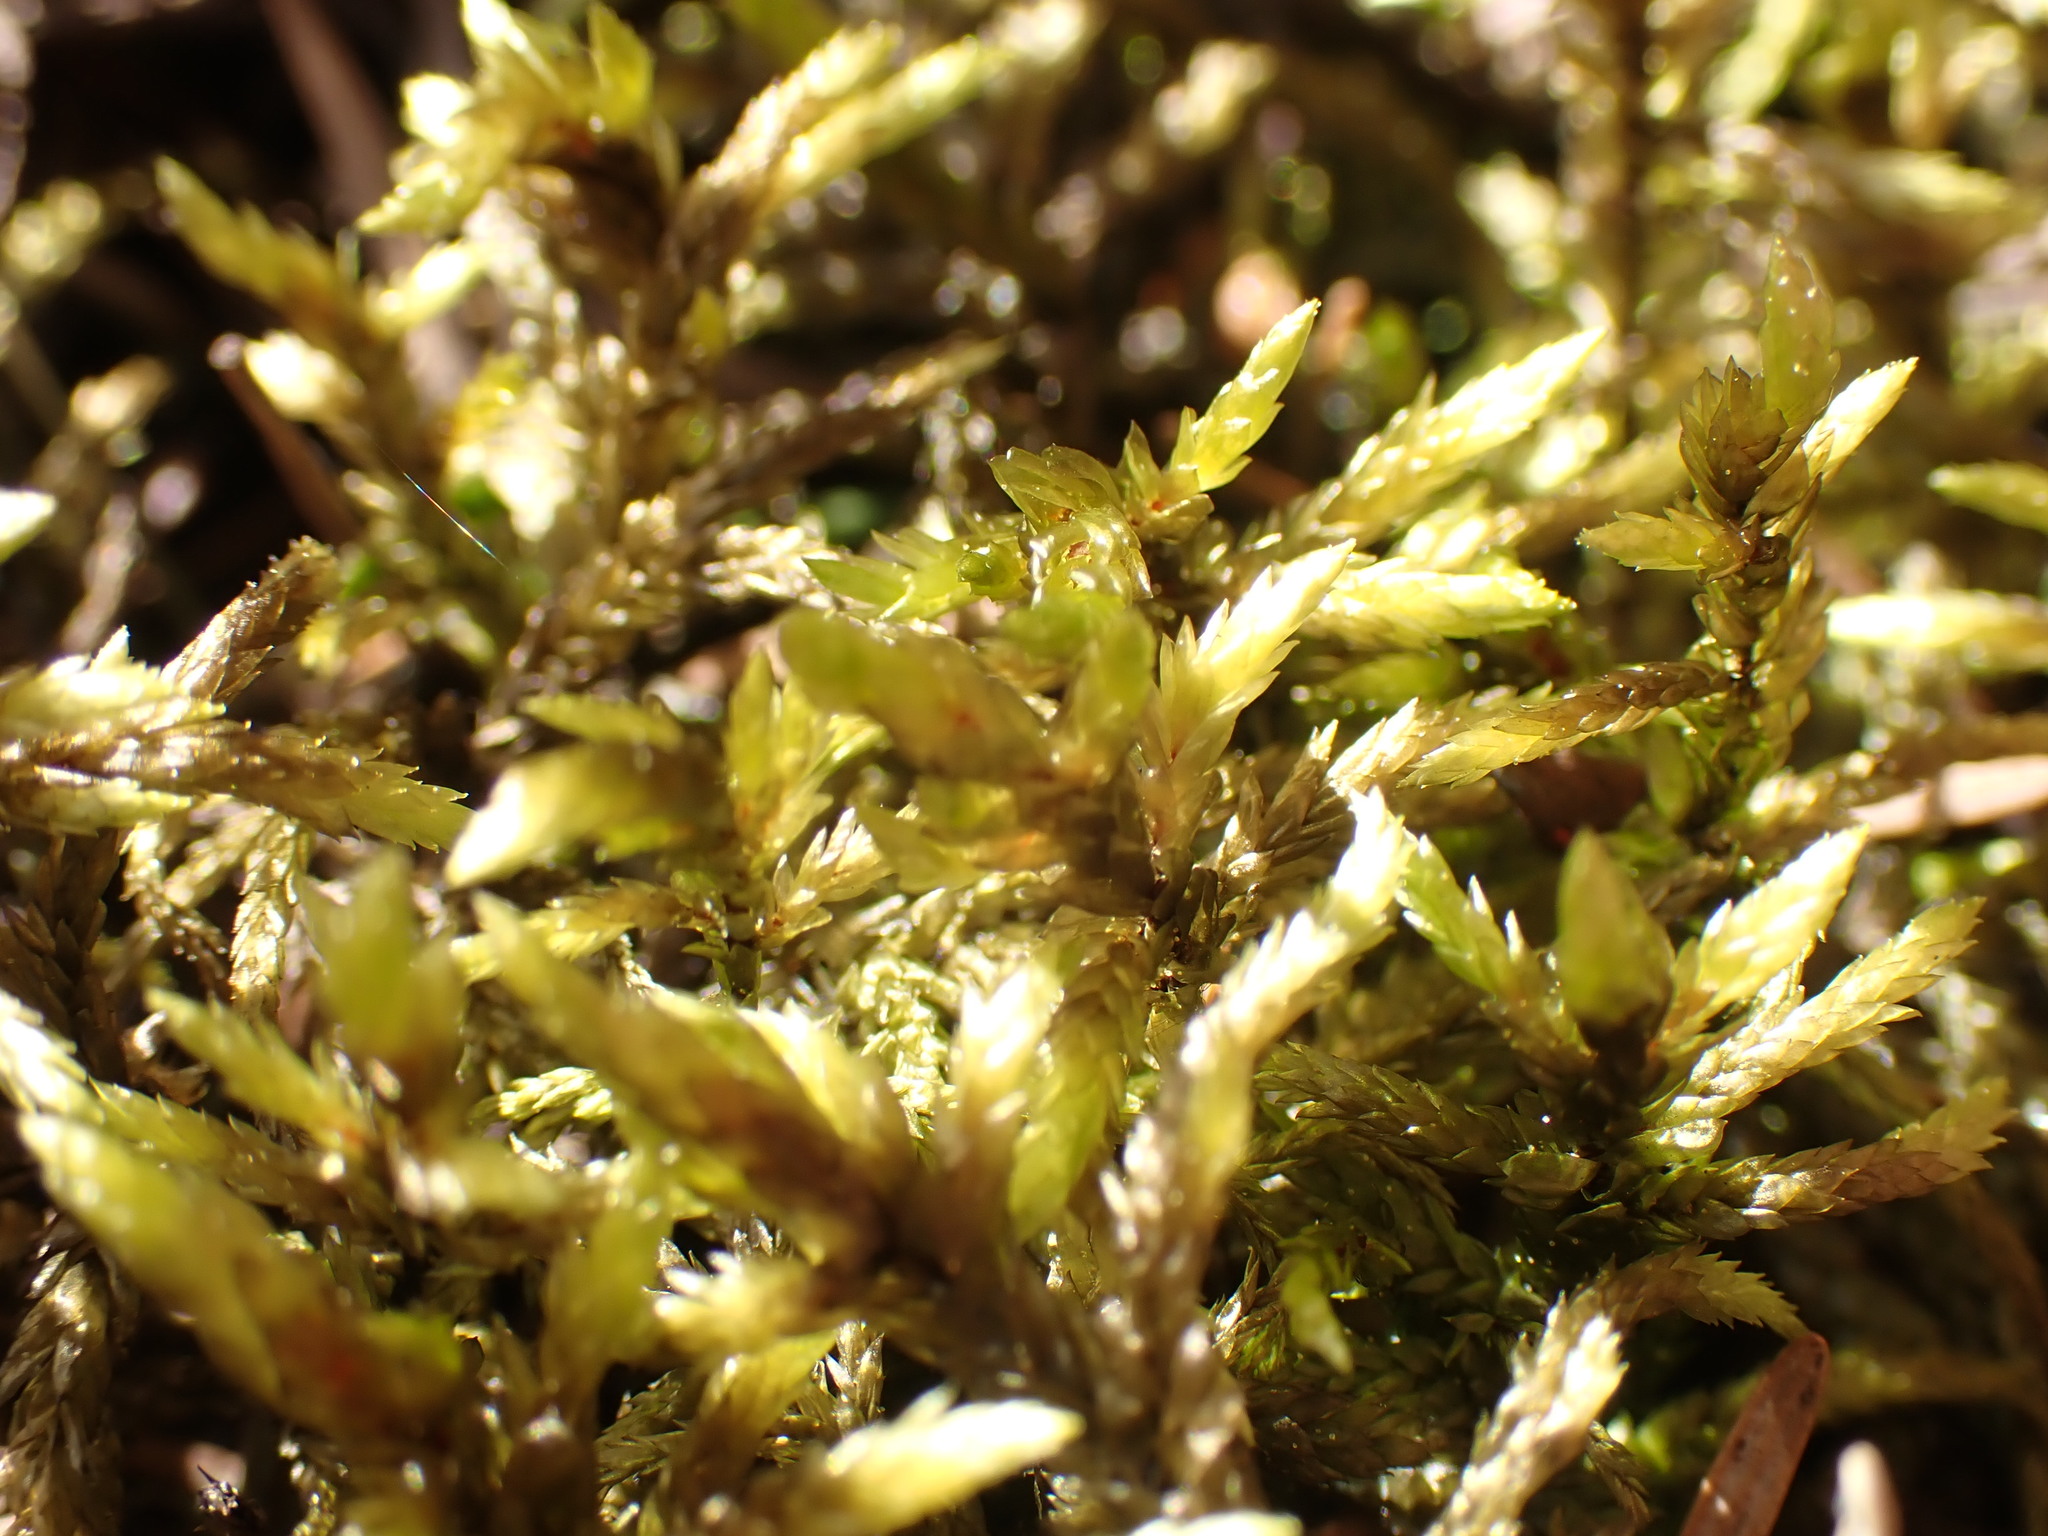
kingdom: Plantae
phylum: Bryophyta
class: Bryopsida
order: Hypnales
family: Hylocomiaceae
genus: Pleurozium
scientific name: Pleurozium schreberi
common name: Red-stemmed feather moss
